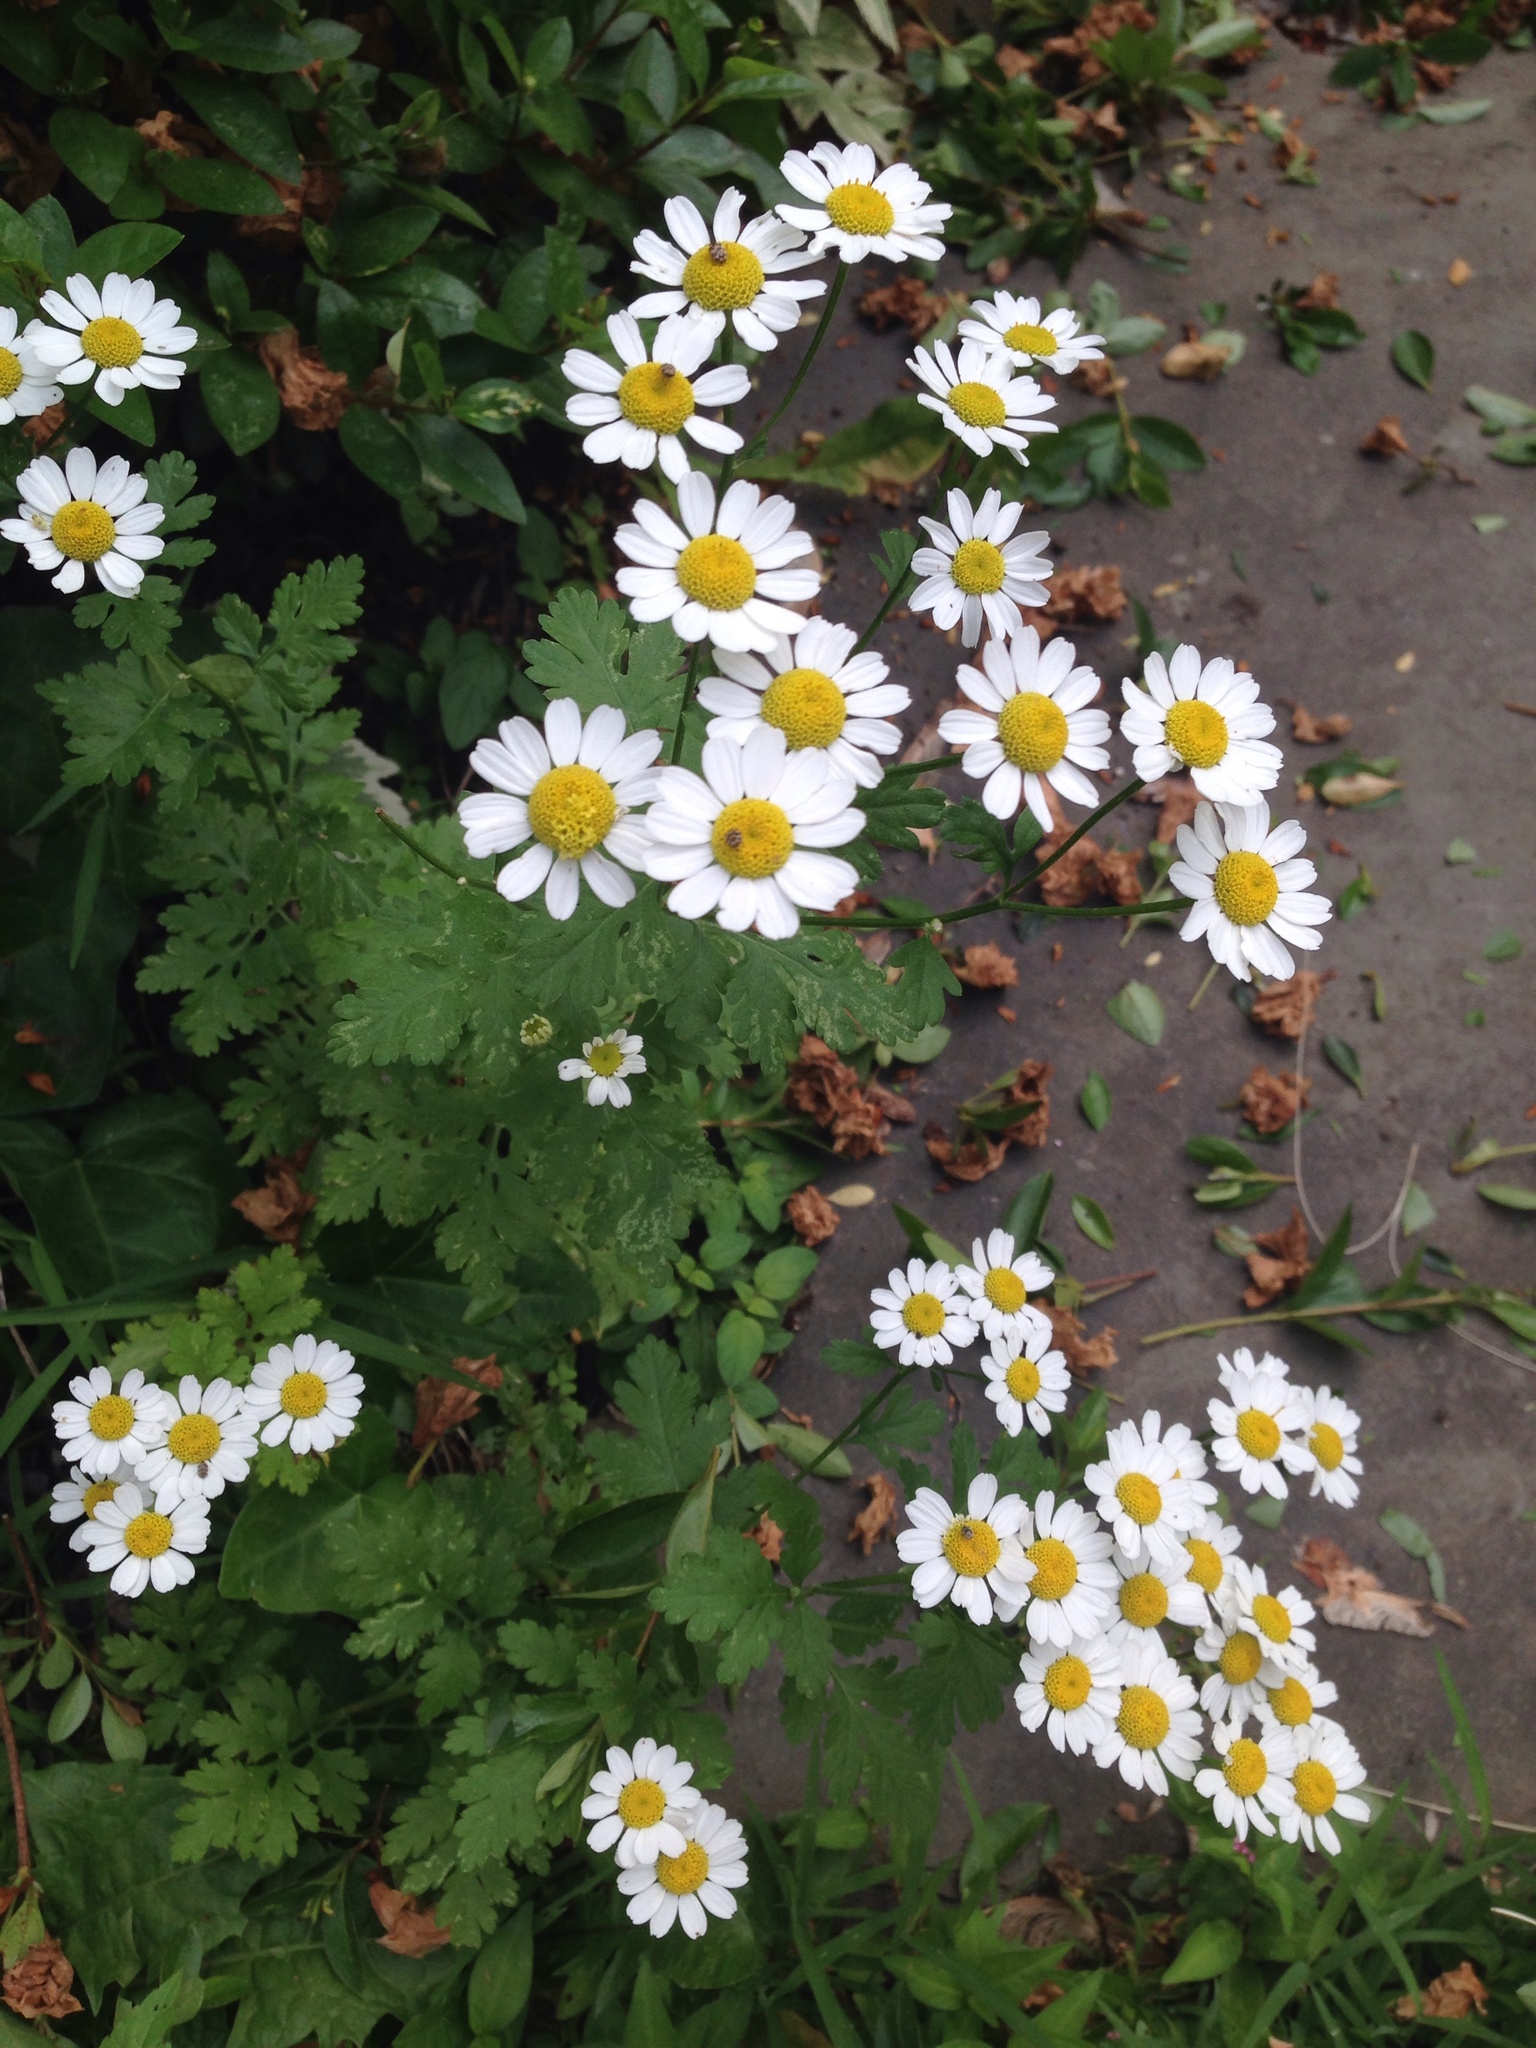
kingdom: Plantae
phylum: Tracheophyta
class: Magnoliopsida
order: Asterales
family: Asteraceae
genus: Tanacetum
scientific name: Tanacetum parthenium
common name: Feverfew
